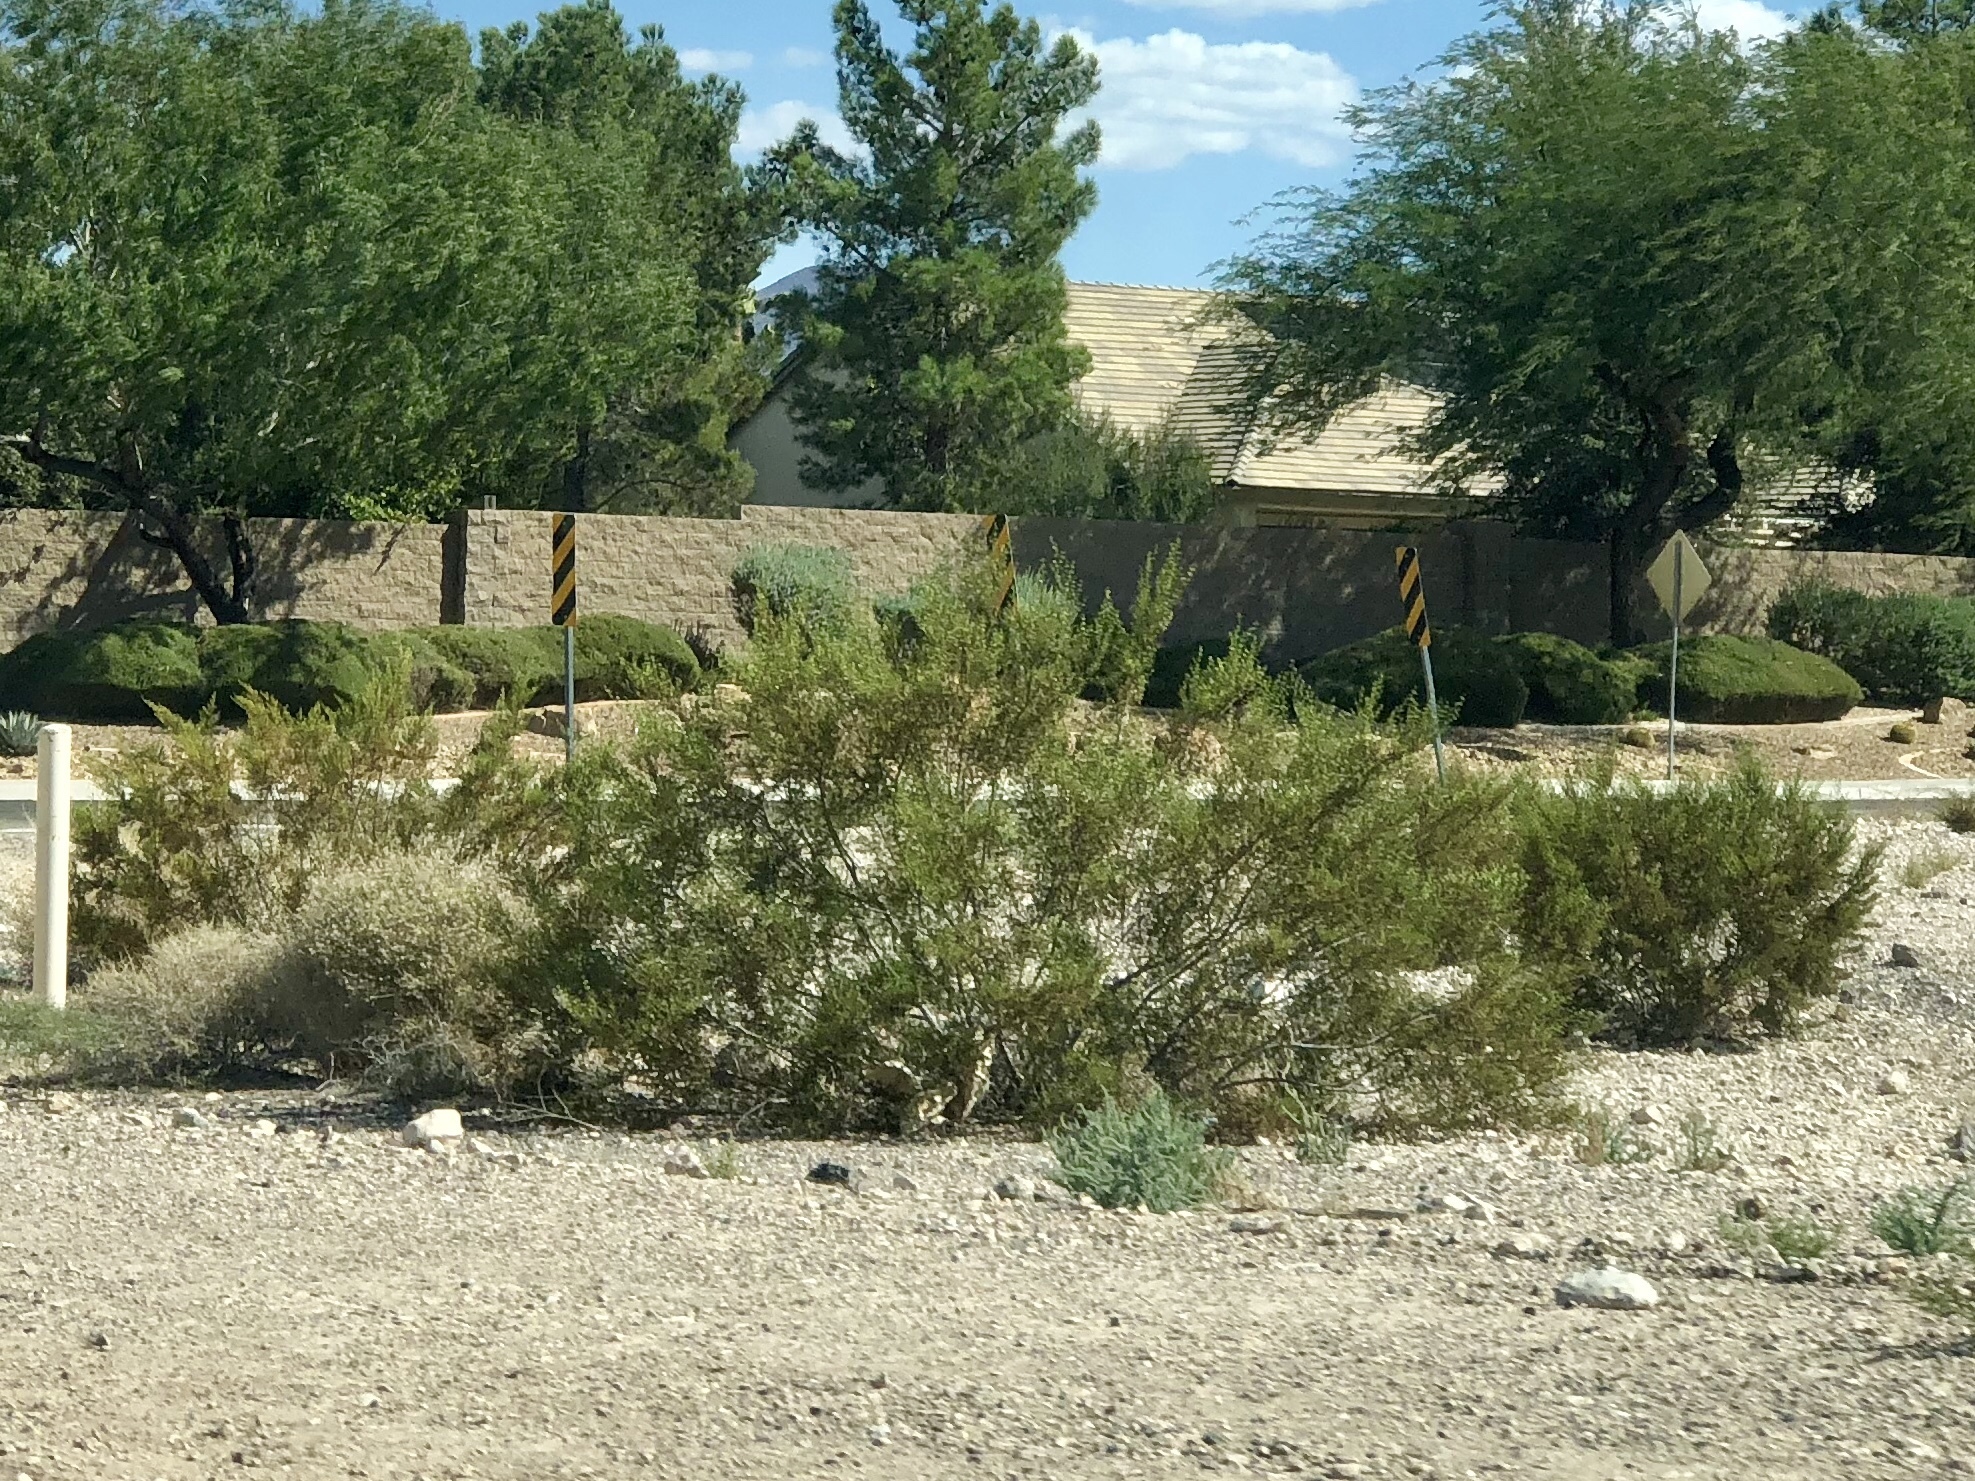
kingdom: Plantae
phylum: Tracheophyta
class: Magnoliopsida
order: Zygophyllales
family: Zygophyllaceae
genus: Larrea
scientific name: Larrea tridentata
